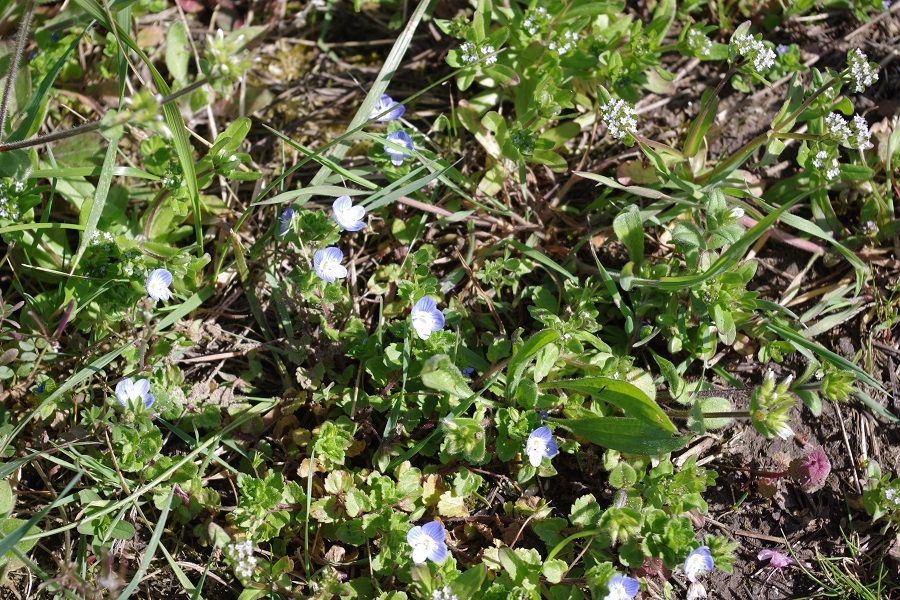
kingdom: Plantae
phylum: Tracheophyta
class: Magnoliopsida
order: Lamiales
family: Plantaginaceae
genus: Veronica
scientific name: Veronica persica
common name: Common field-speedwell
